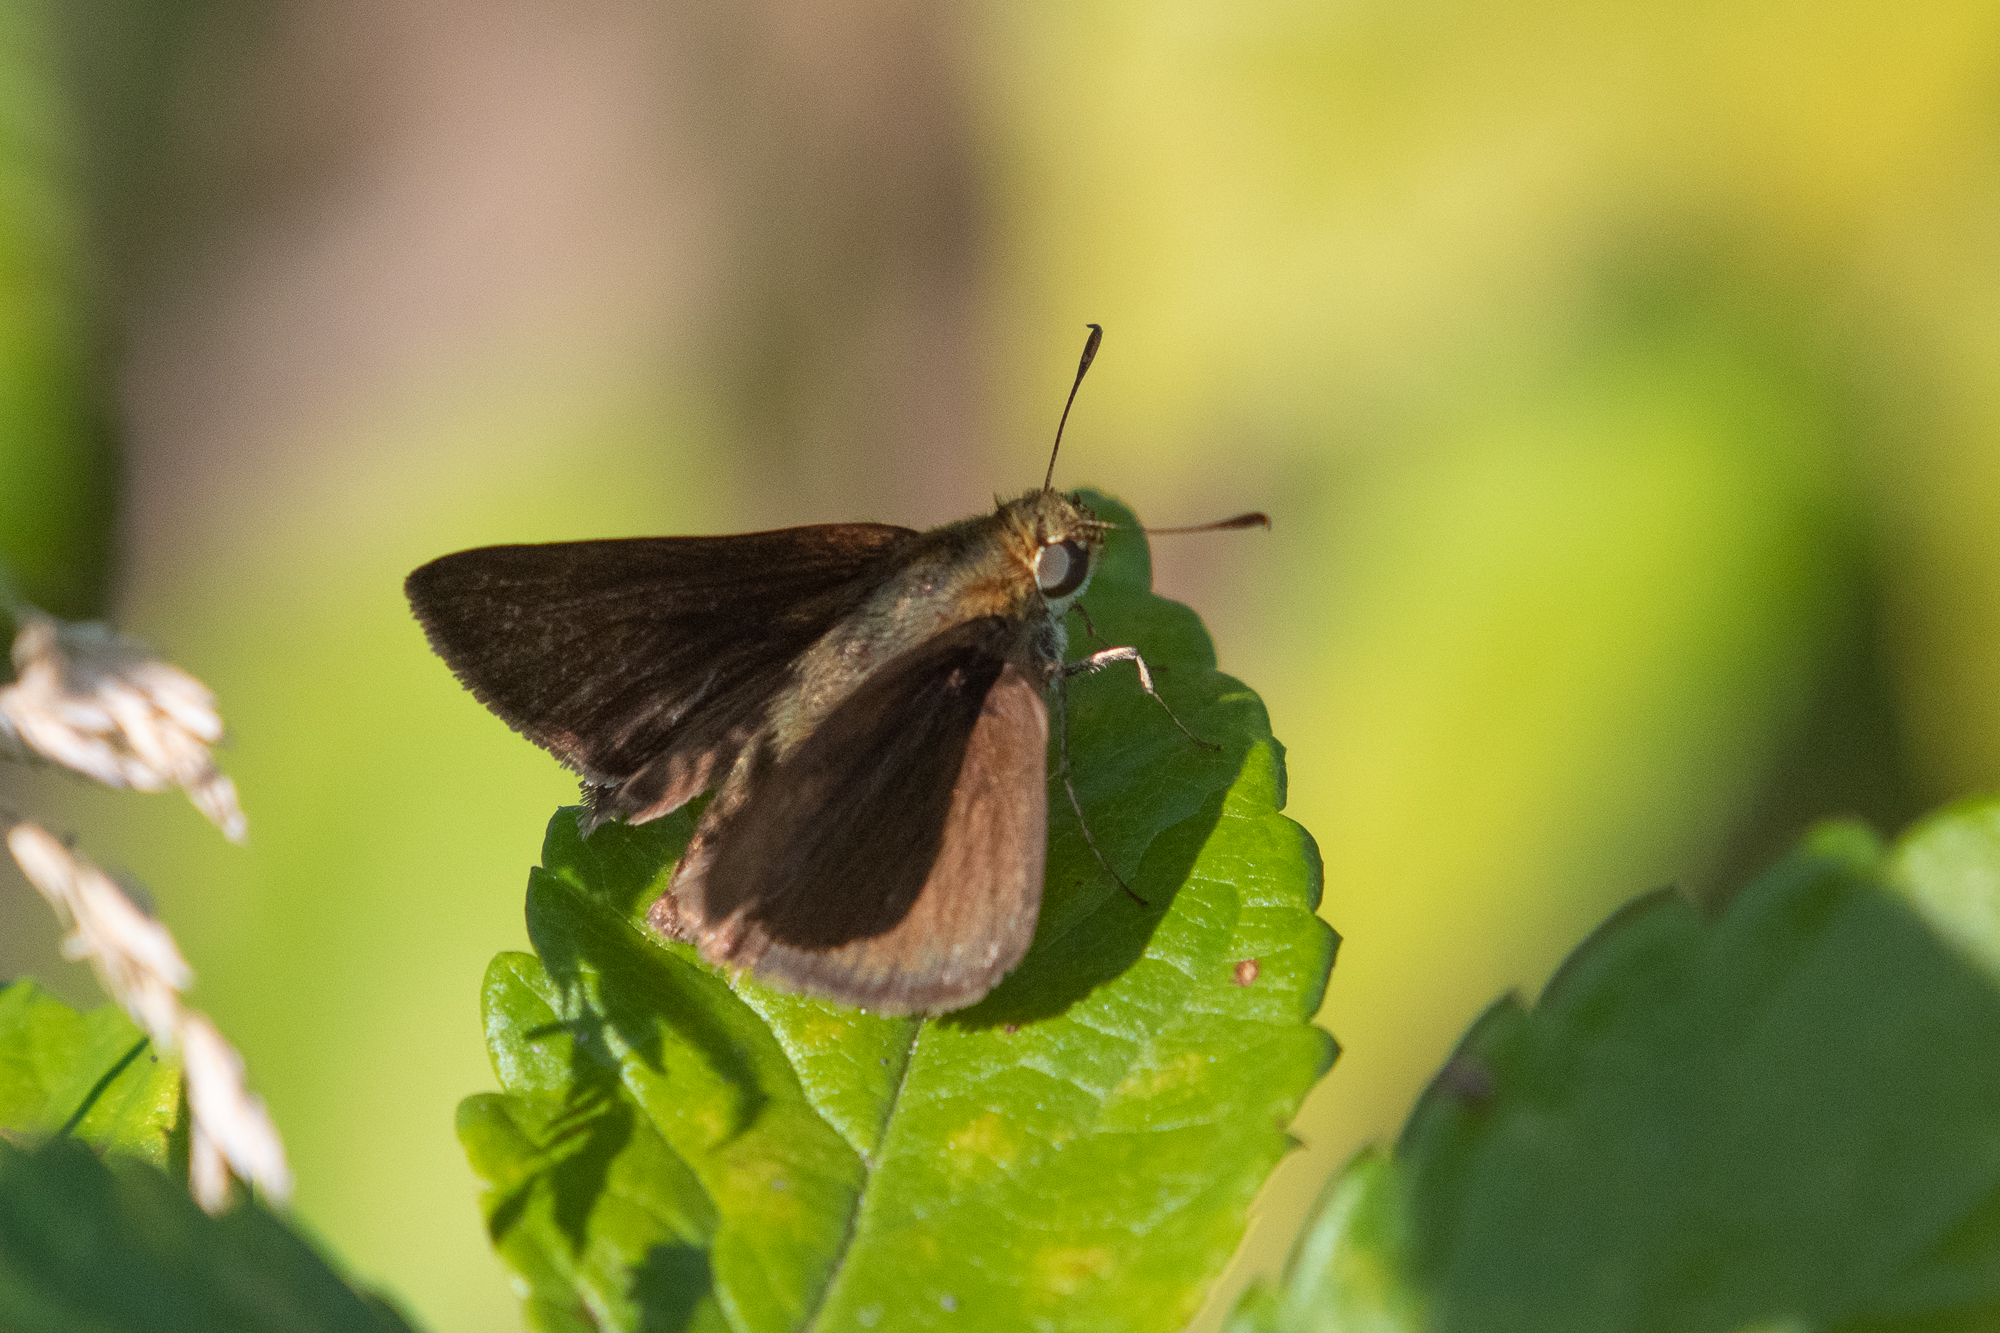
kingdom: Animalia
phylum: Arthropoda
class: Insecta
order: Lepidoptera
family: Hesperiidae
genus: Euphyes
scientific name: Euphyes vestris
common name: Dun skipper
